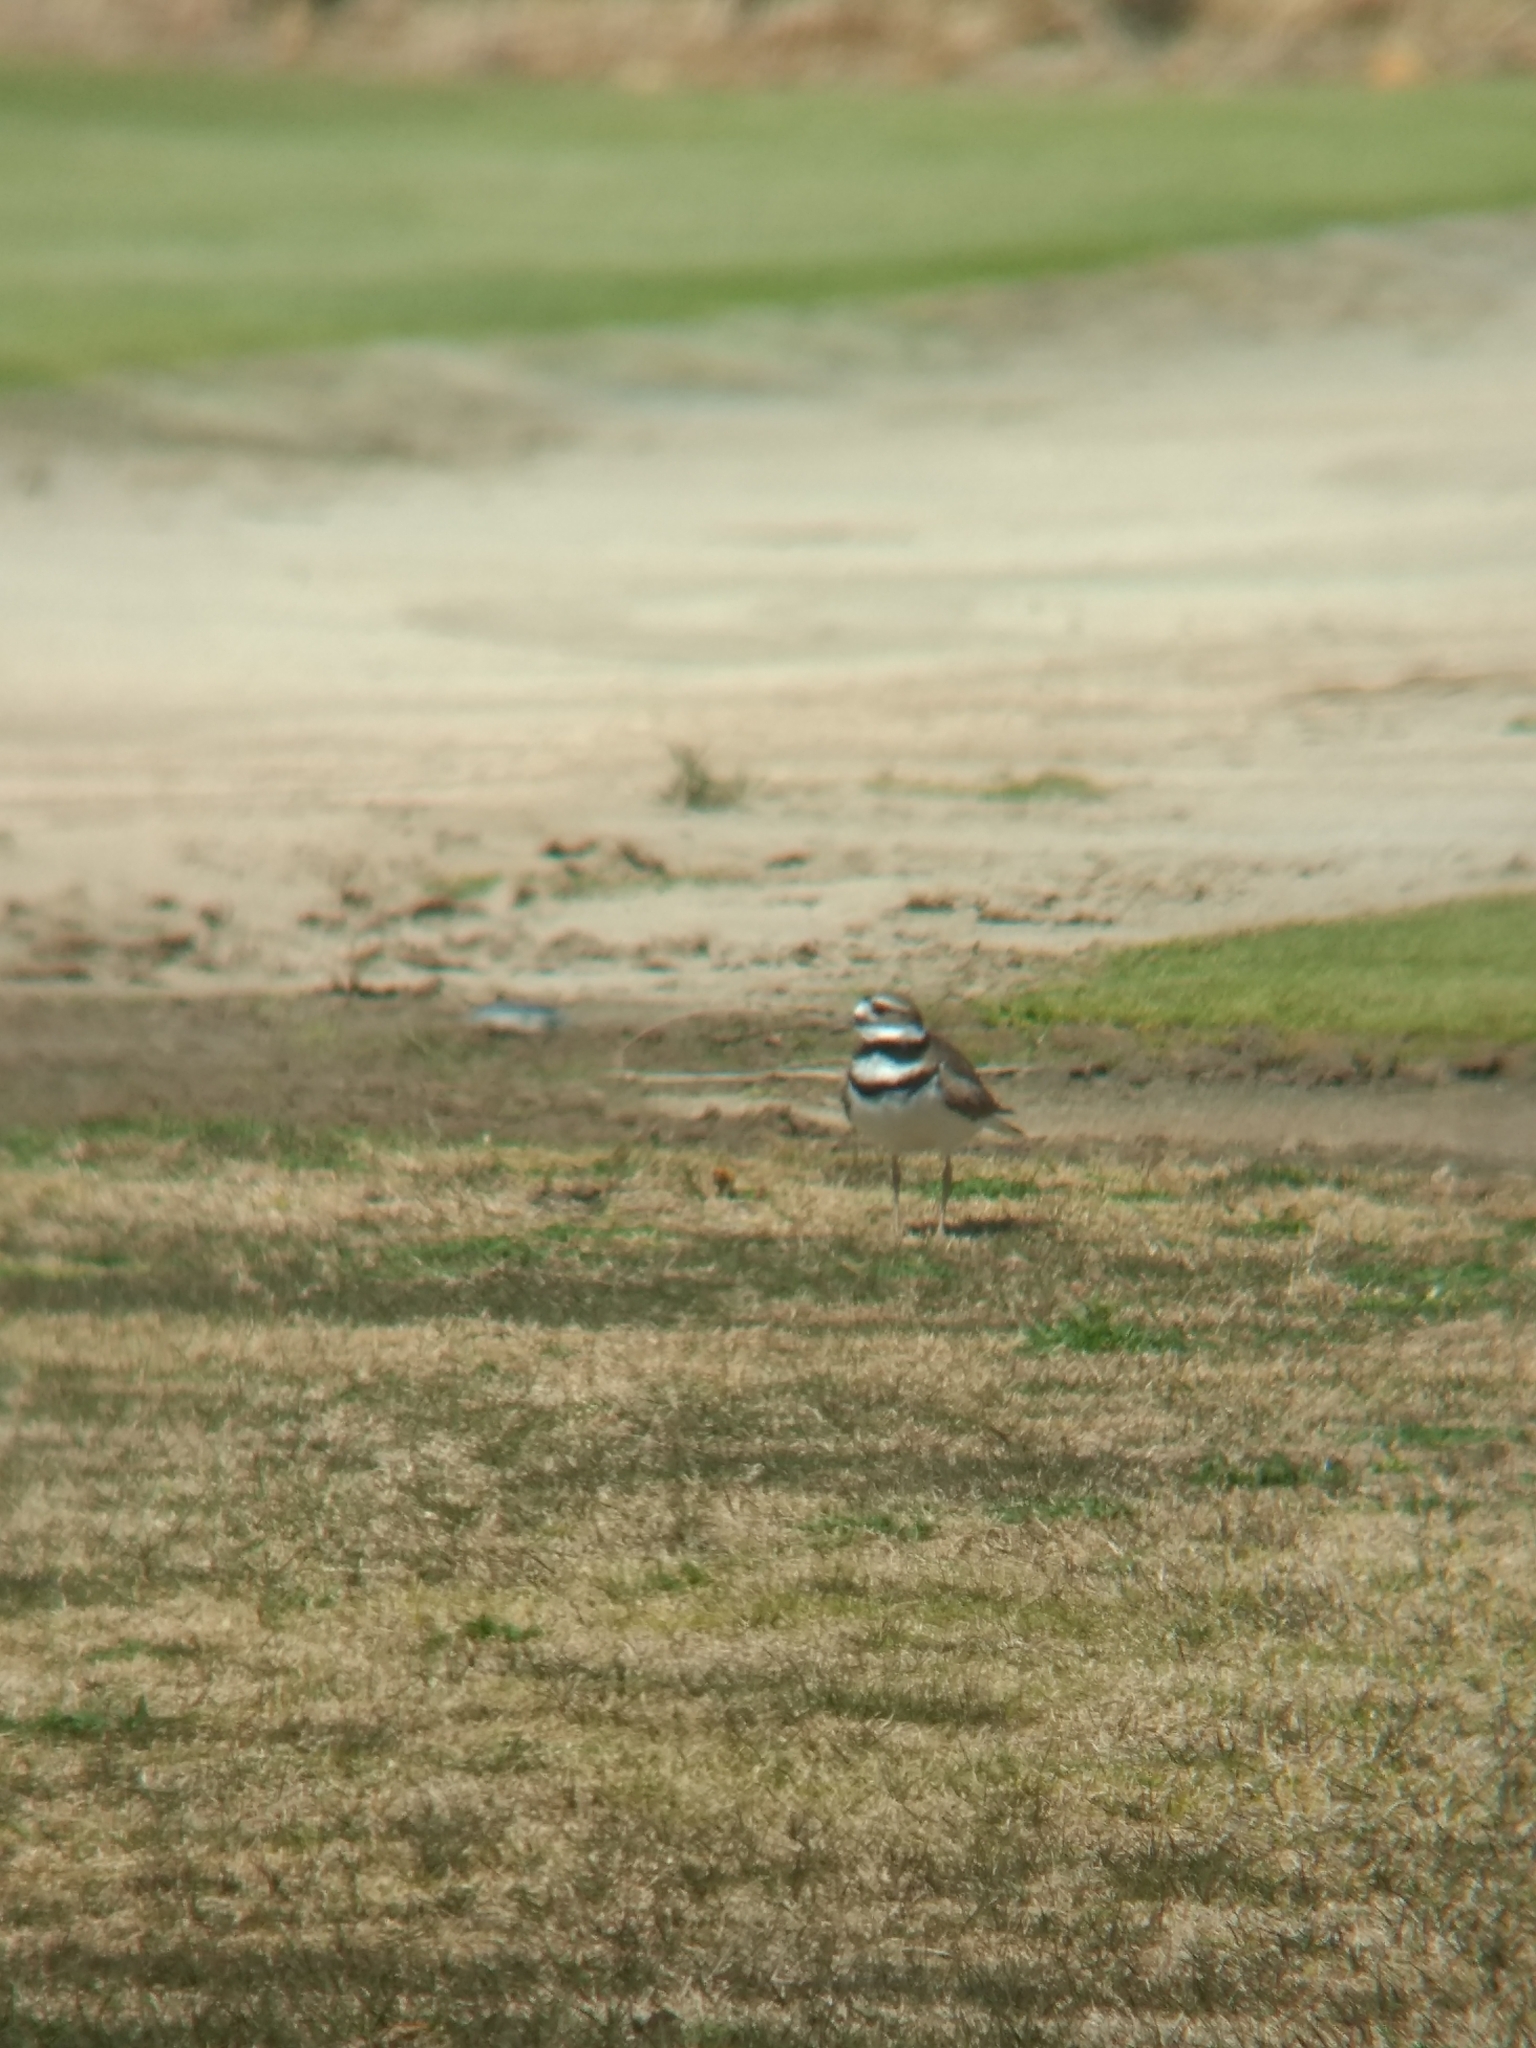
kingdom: Animalia
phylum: Chordata
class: Aves
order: Charadriiformes
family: Charadriidae
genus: Charadrius
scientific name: Charadrius vociferus
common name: Killdeer
